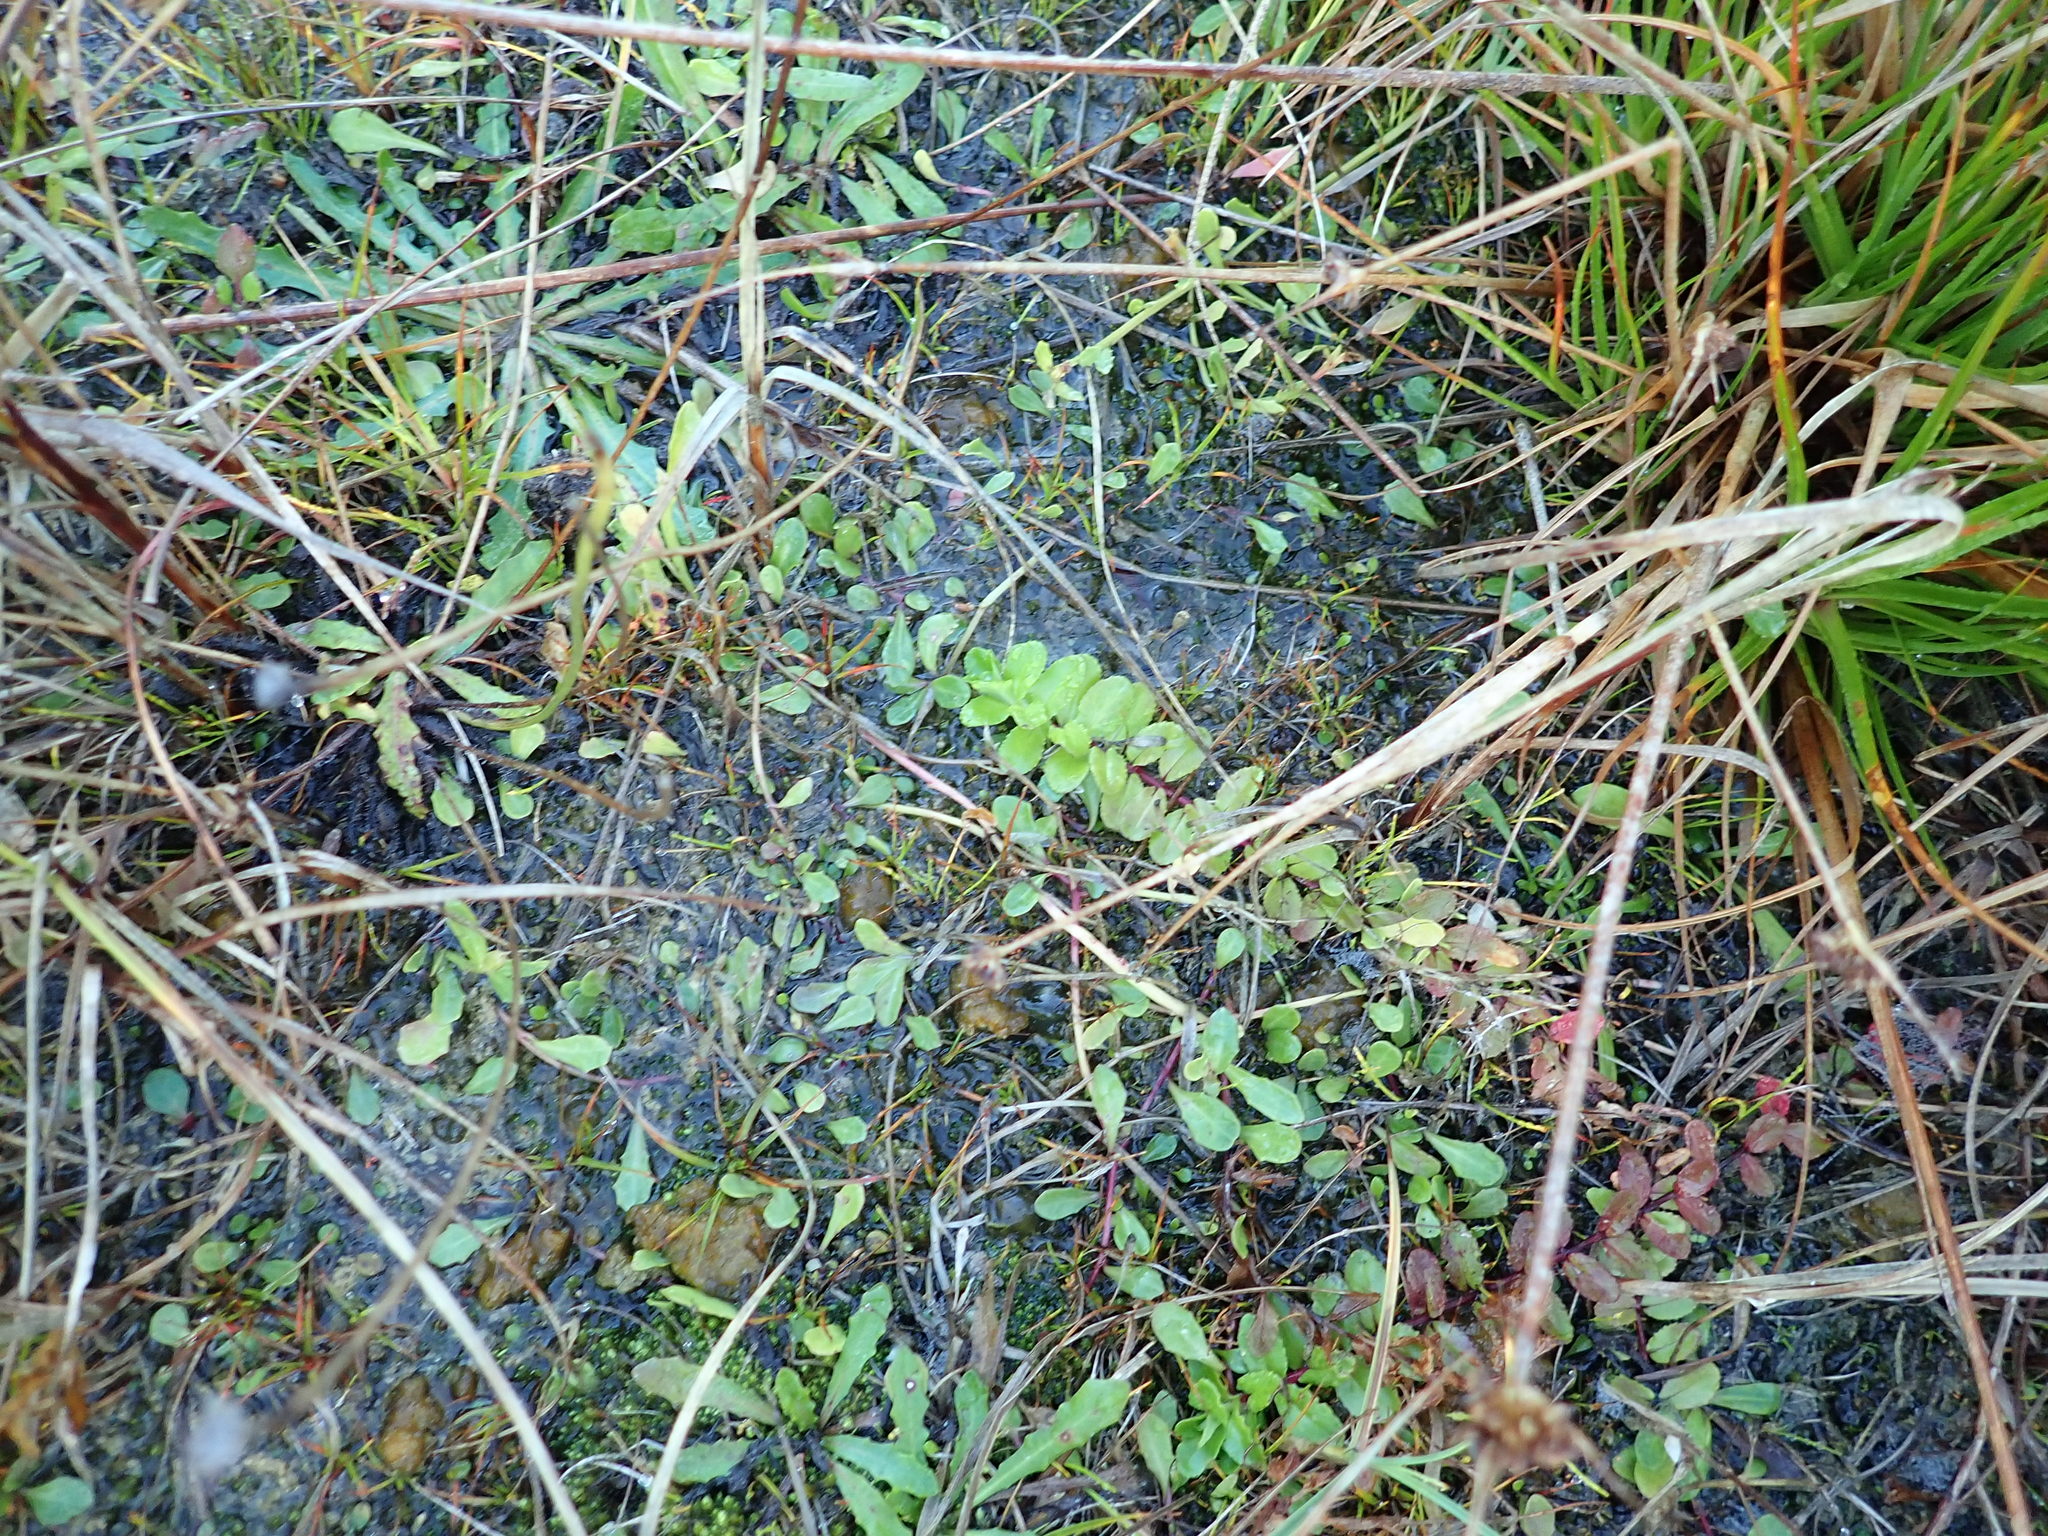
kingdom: Plantae
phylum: Tracheophyta
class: Magnoliopsida
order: Myrtales
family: Onagraceae
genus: Epilobium
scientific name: Epilobium billardiereanum
